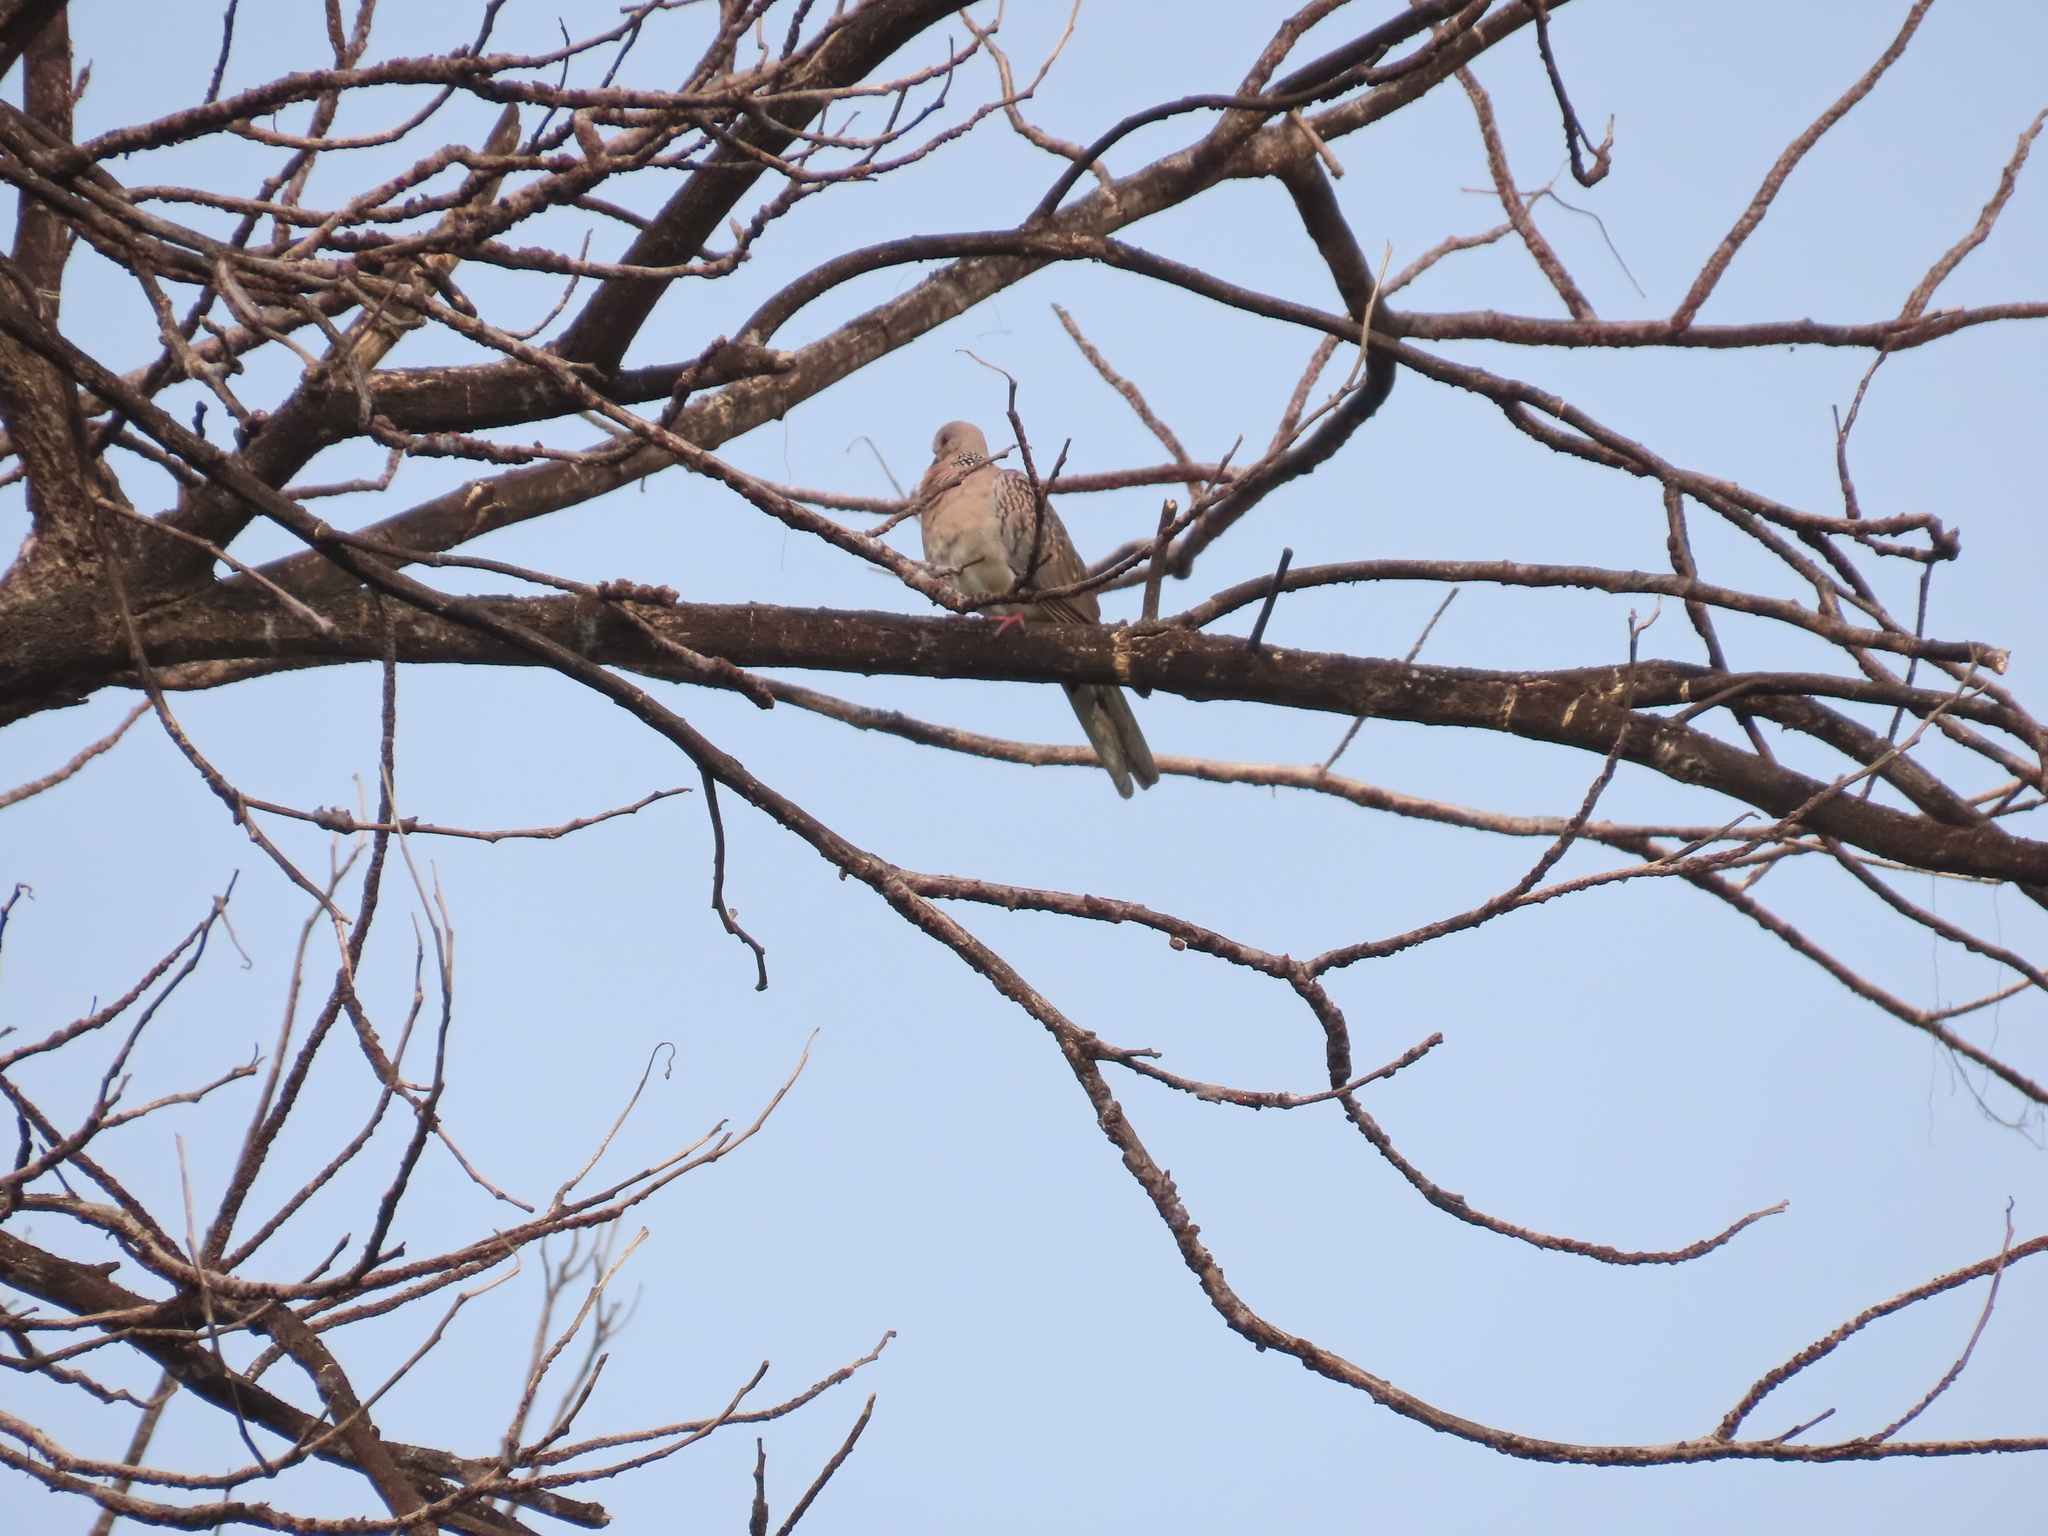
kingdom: Animalia
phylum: Chordata
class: Aves
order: Columbiformes
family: Columbidae
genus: Spilopelia
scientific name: Spilopelia chinensis
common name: Spotted dove
